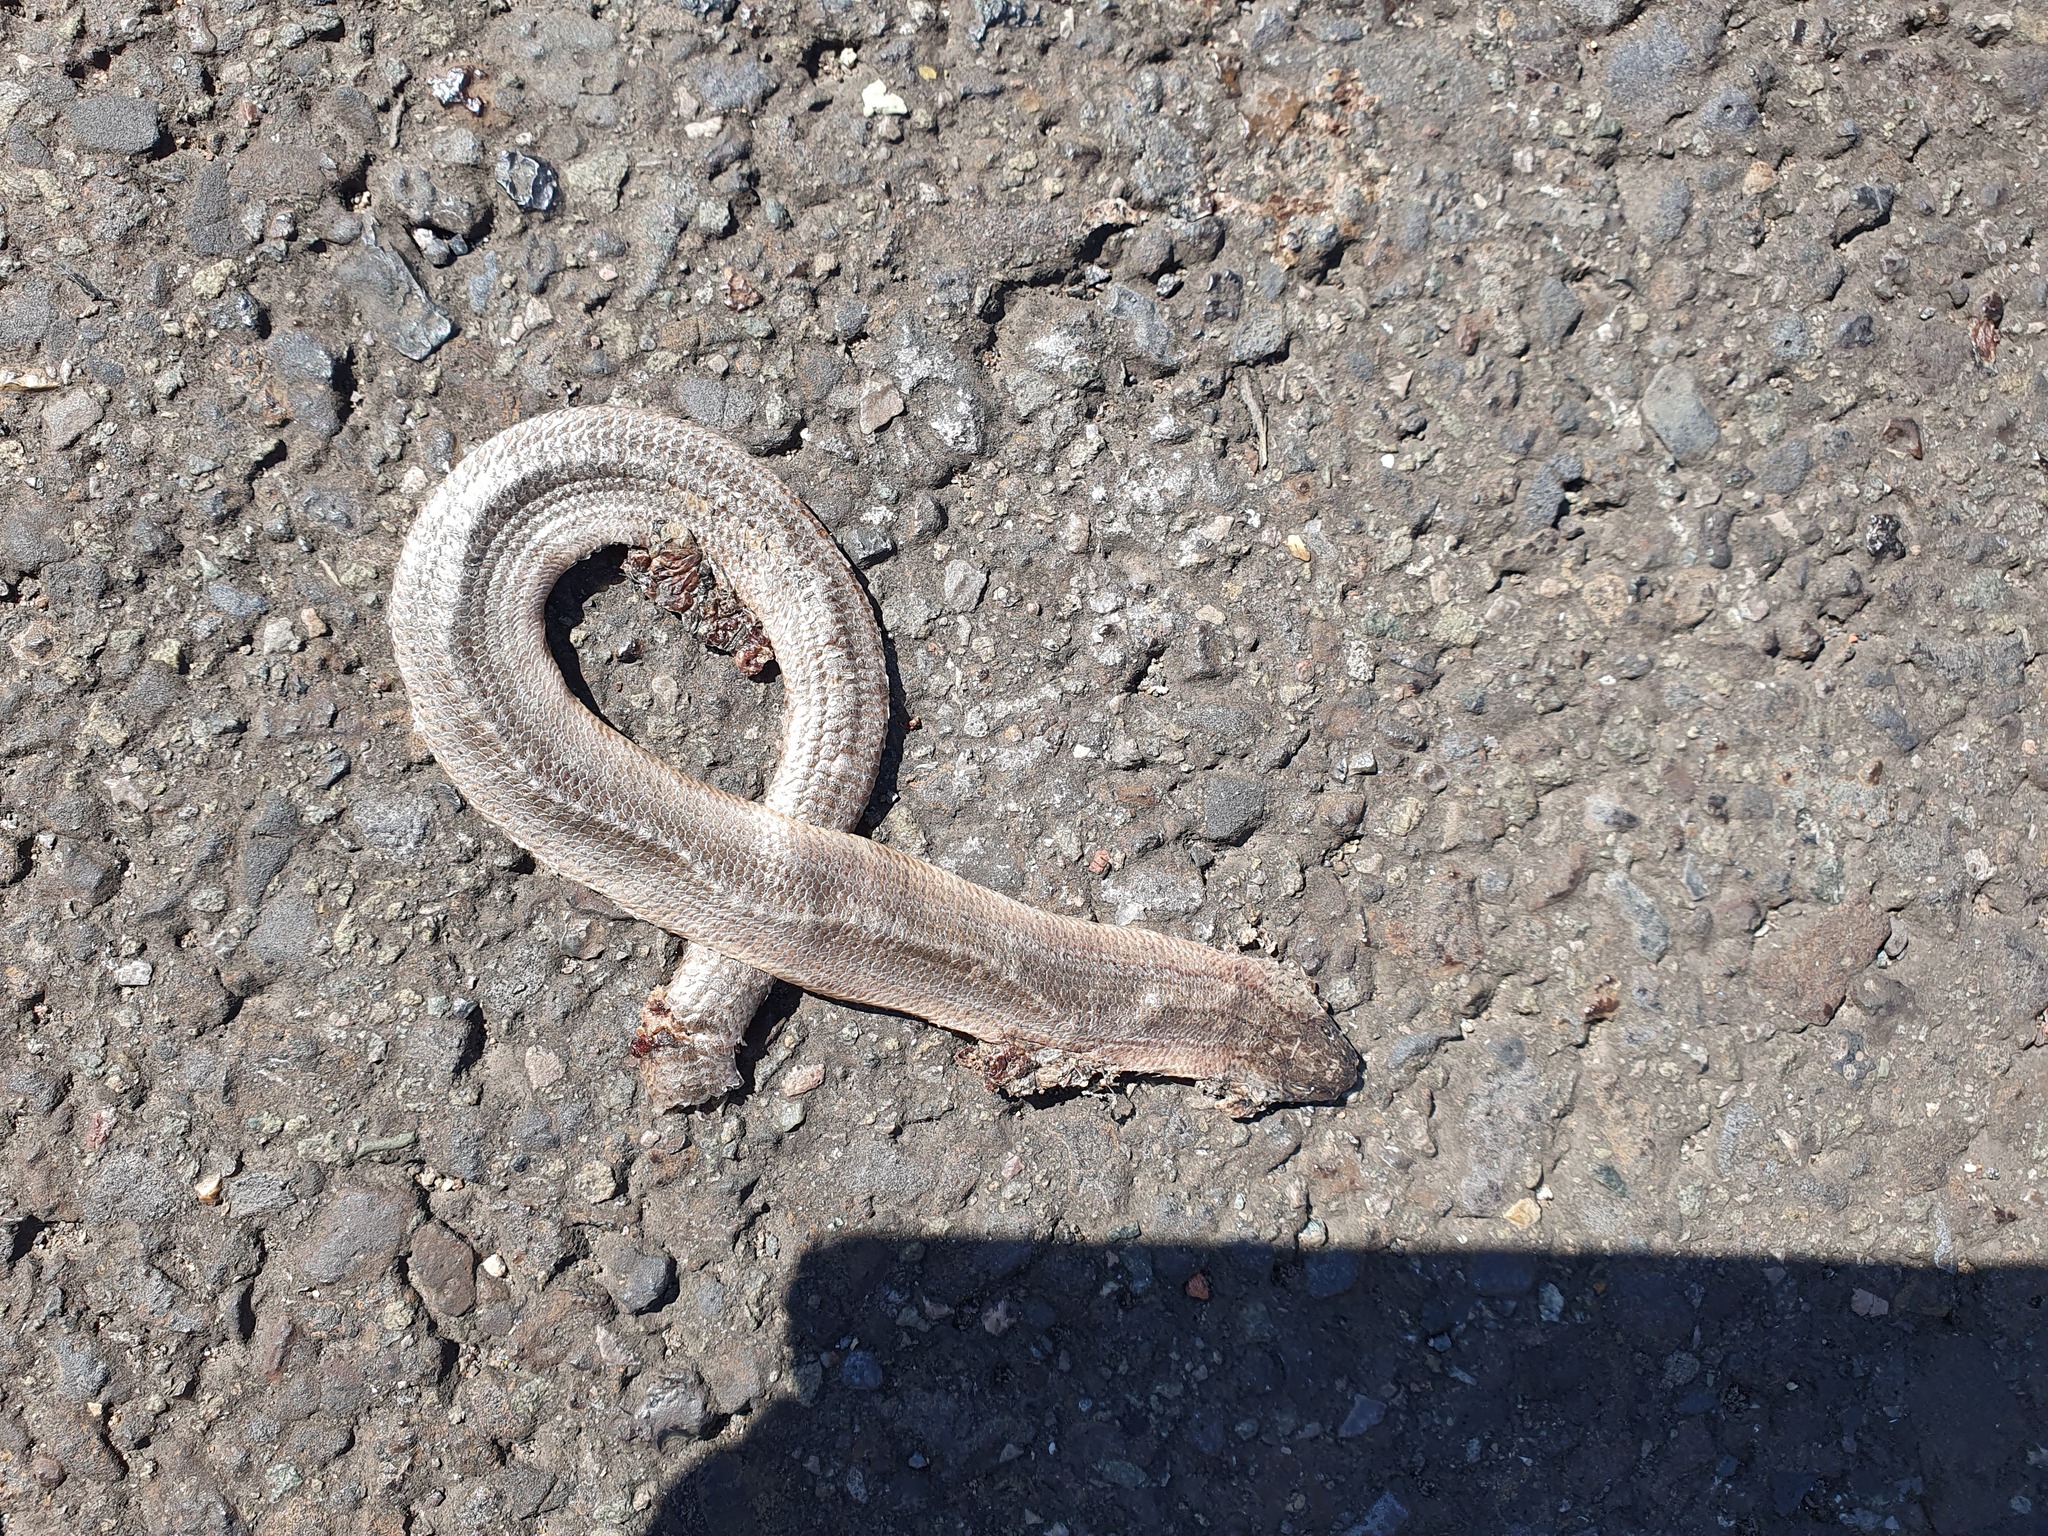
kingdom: Animalia
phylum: Chordata
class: Squamata
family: Anguidae
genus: Anguis
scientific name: Anguis fragilis
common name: Slow worm
